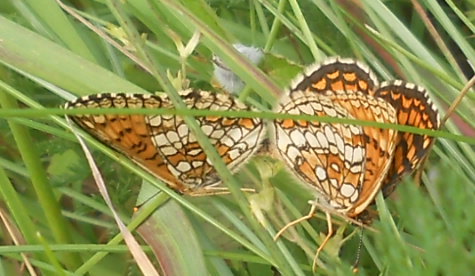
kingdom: Animalia
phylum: Arthropoda
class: Insecta
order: Lepidoptera
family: Nymphalidae
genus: Melitaea
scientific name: Melitaea athalia
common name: Heath fritillary
